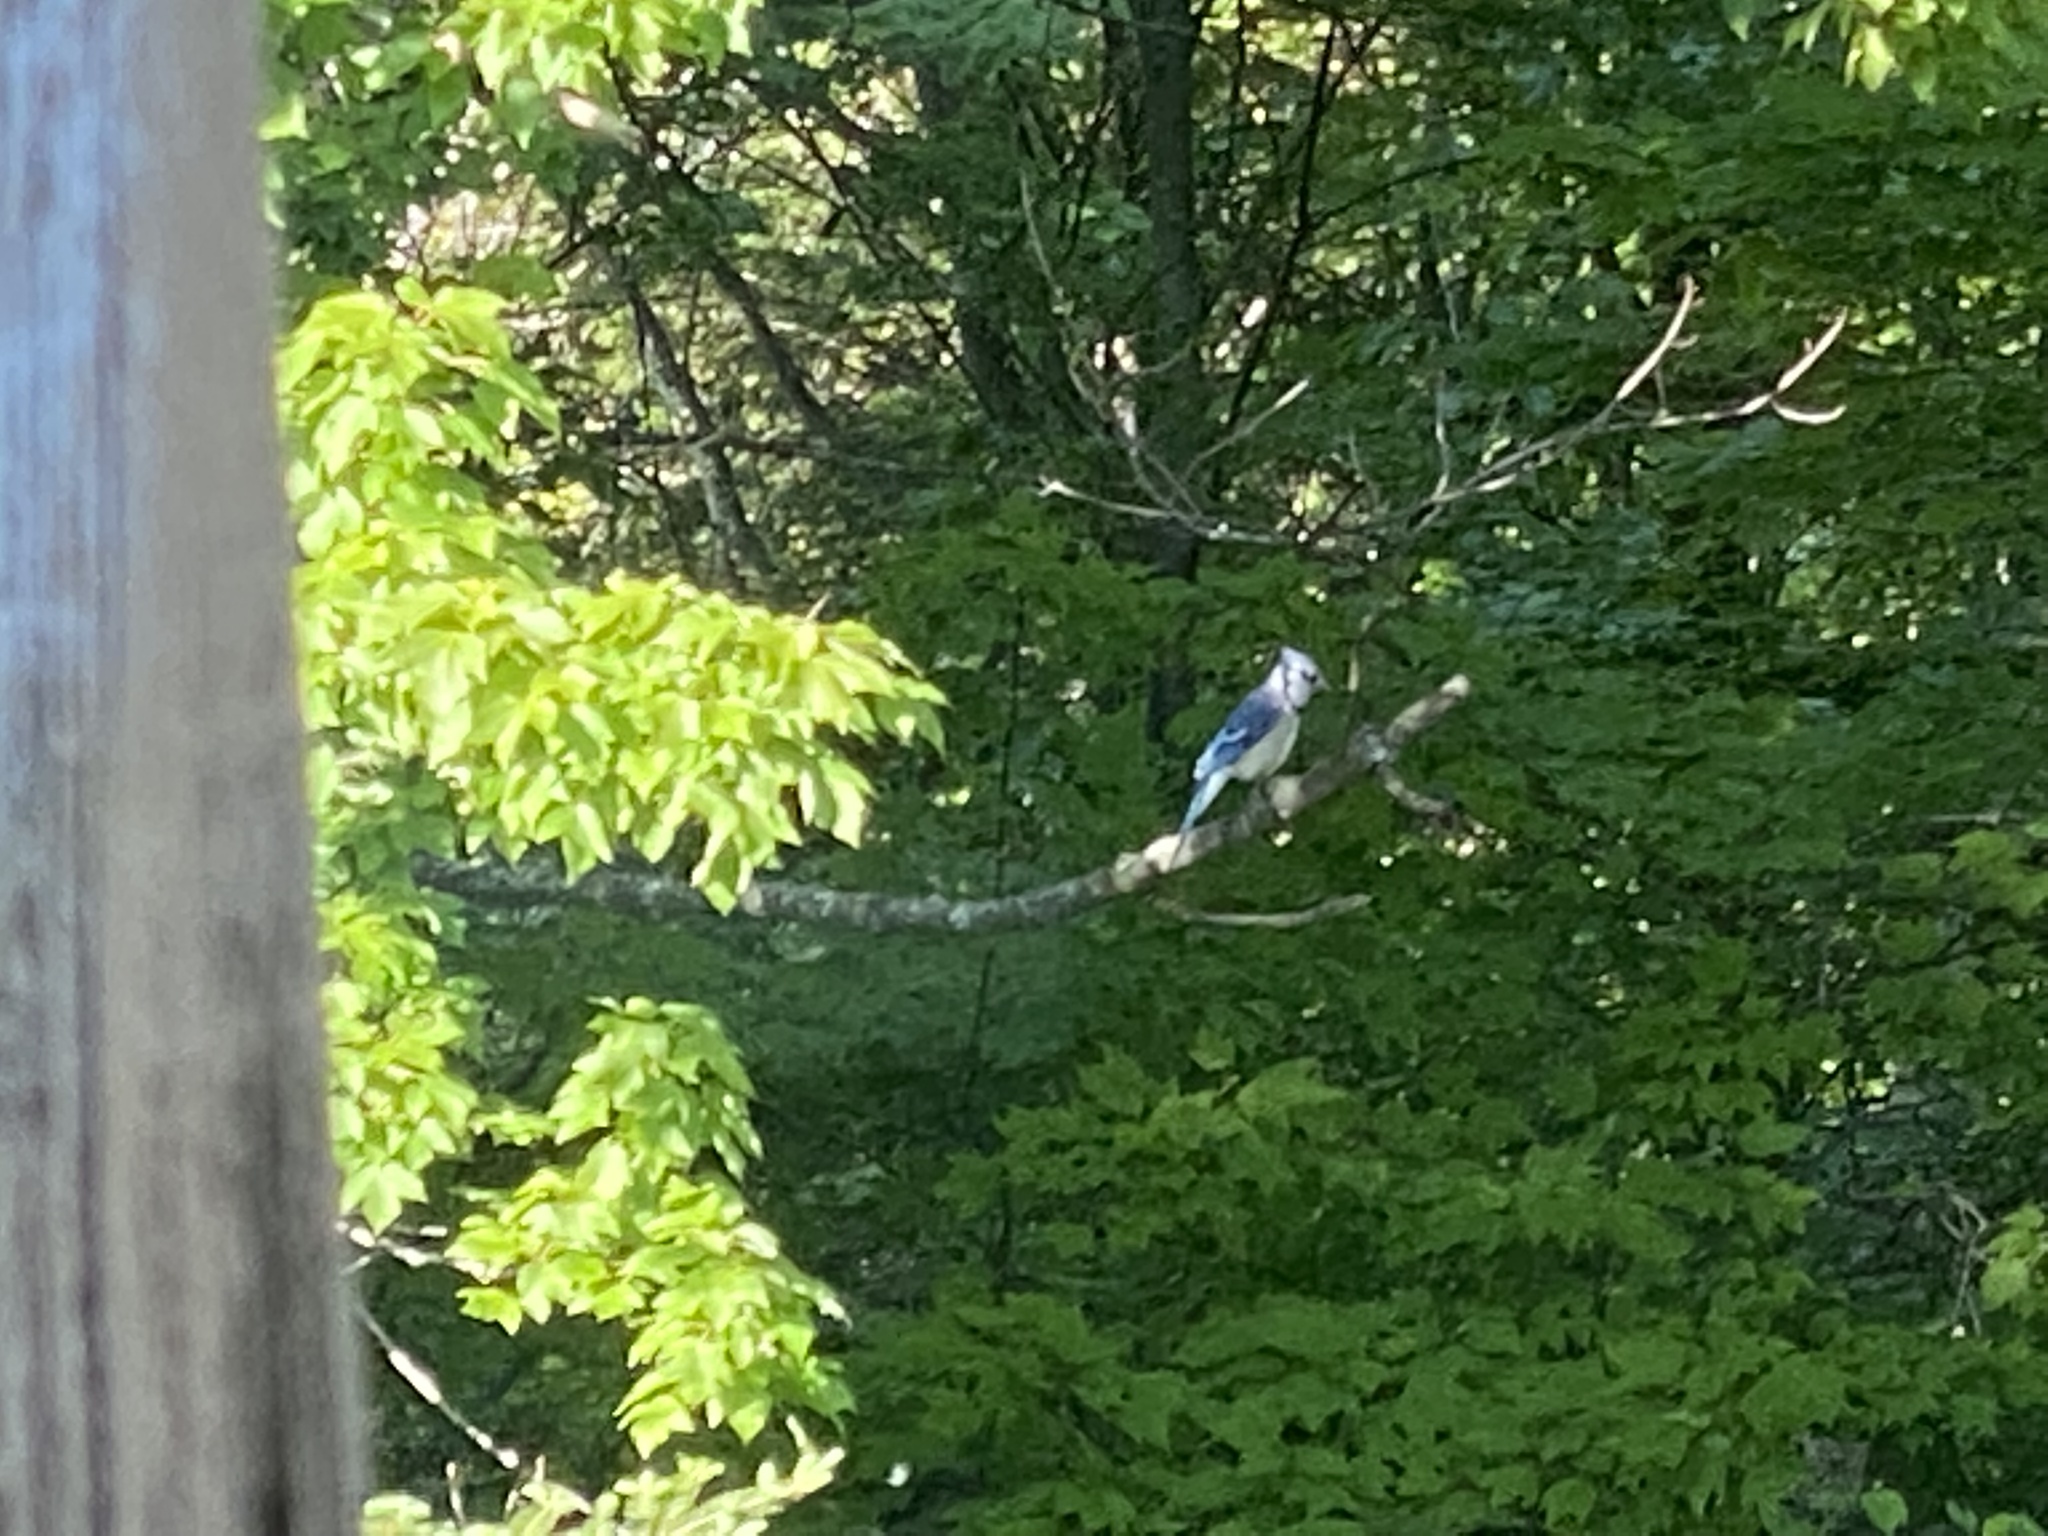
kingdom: Animalia
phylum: Chordata
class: Aves
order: Passeriformes
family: Corvidae
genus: Cyanocitta
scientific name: Cyanocitta cristata
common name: Blue jay
